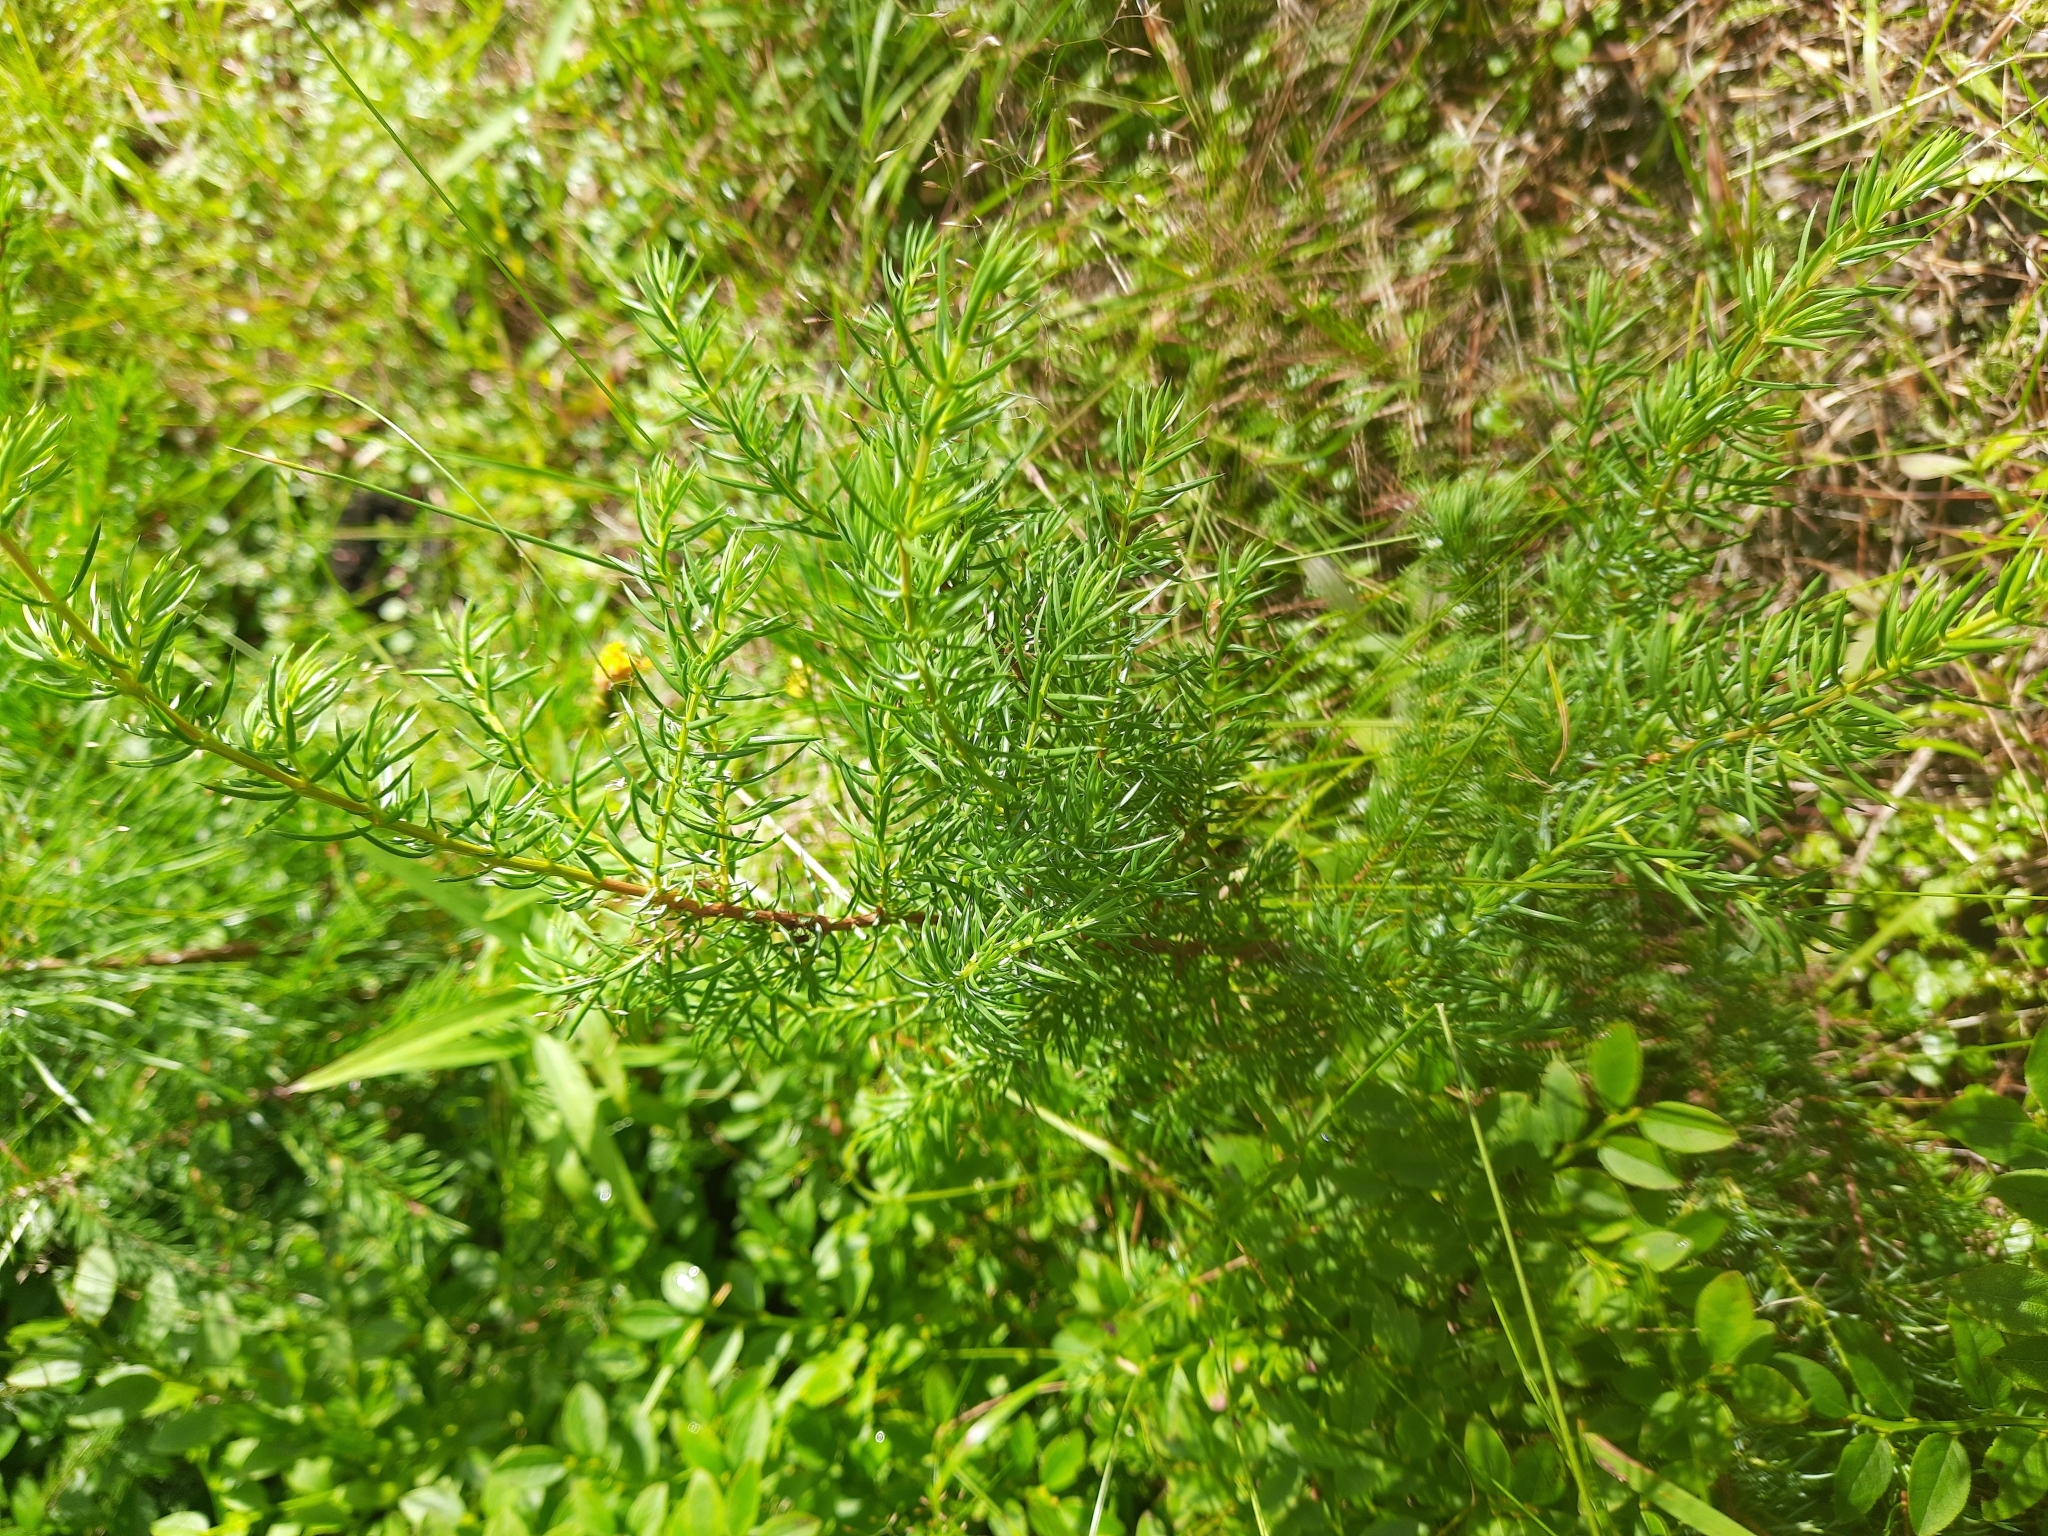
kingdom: Plantae
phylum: Tracheophyta
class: Pinopsida
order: Pinales
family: Cupressaceae
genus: Juniperus
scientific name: Juniperus communis
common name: Common juniper
